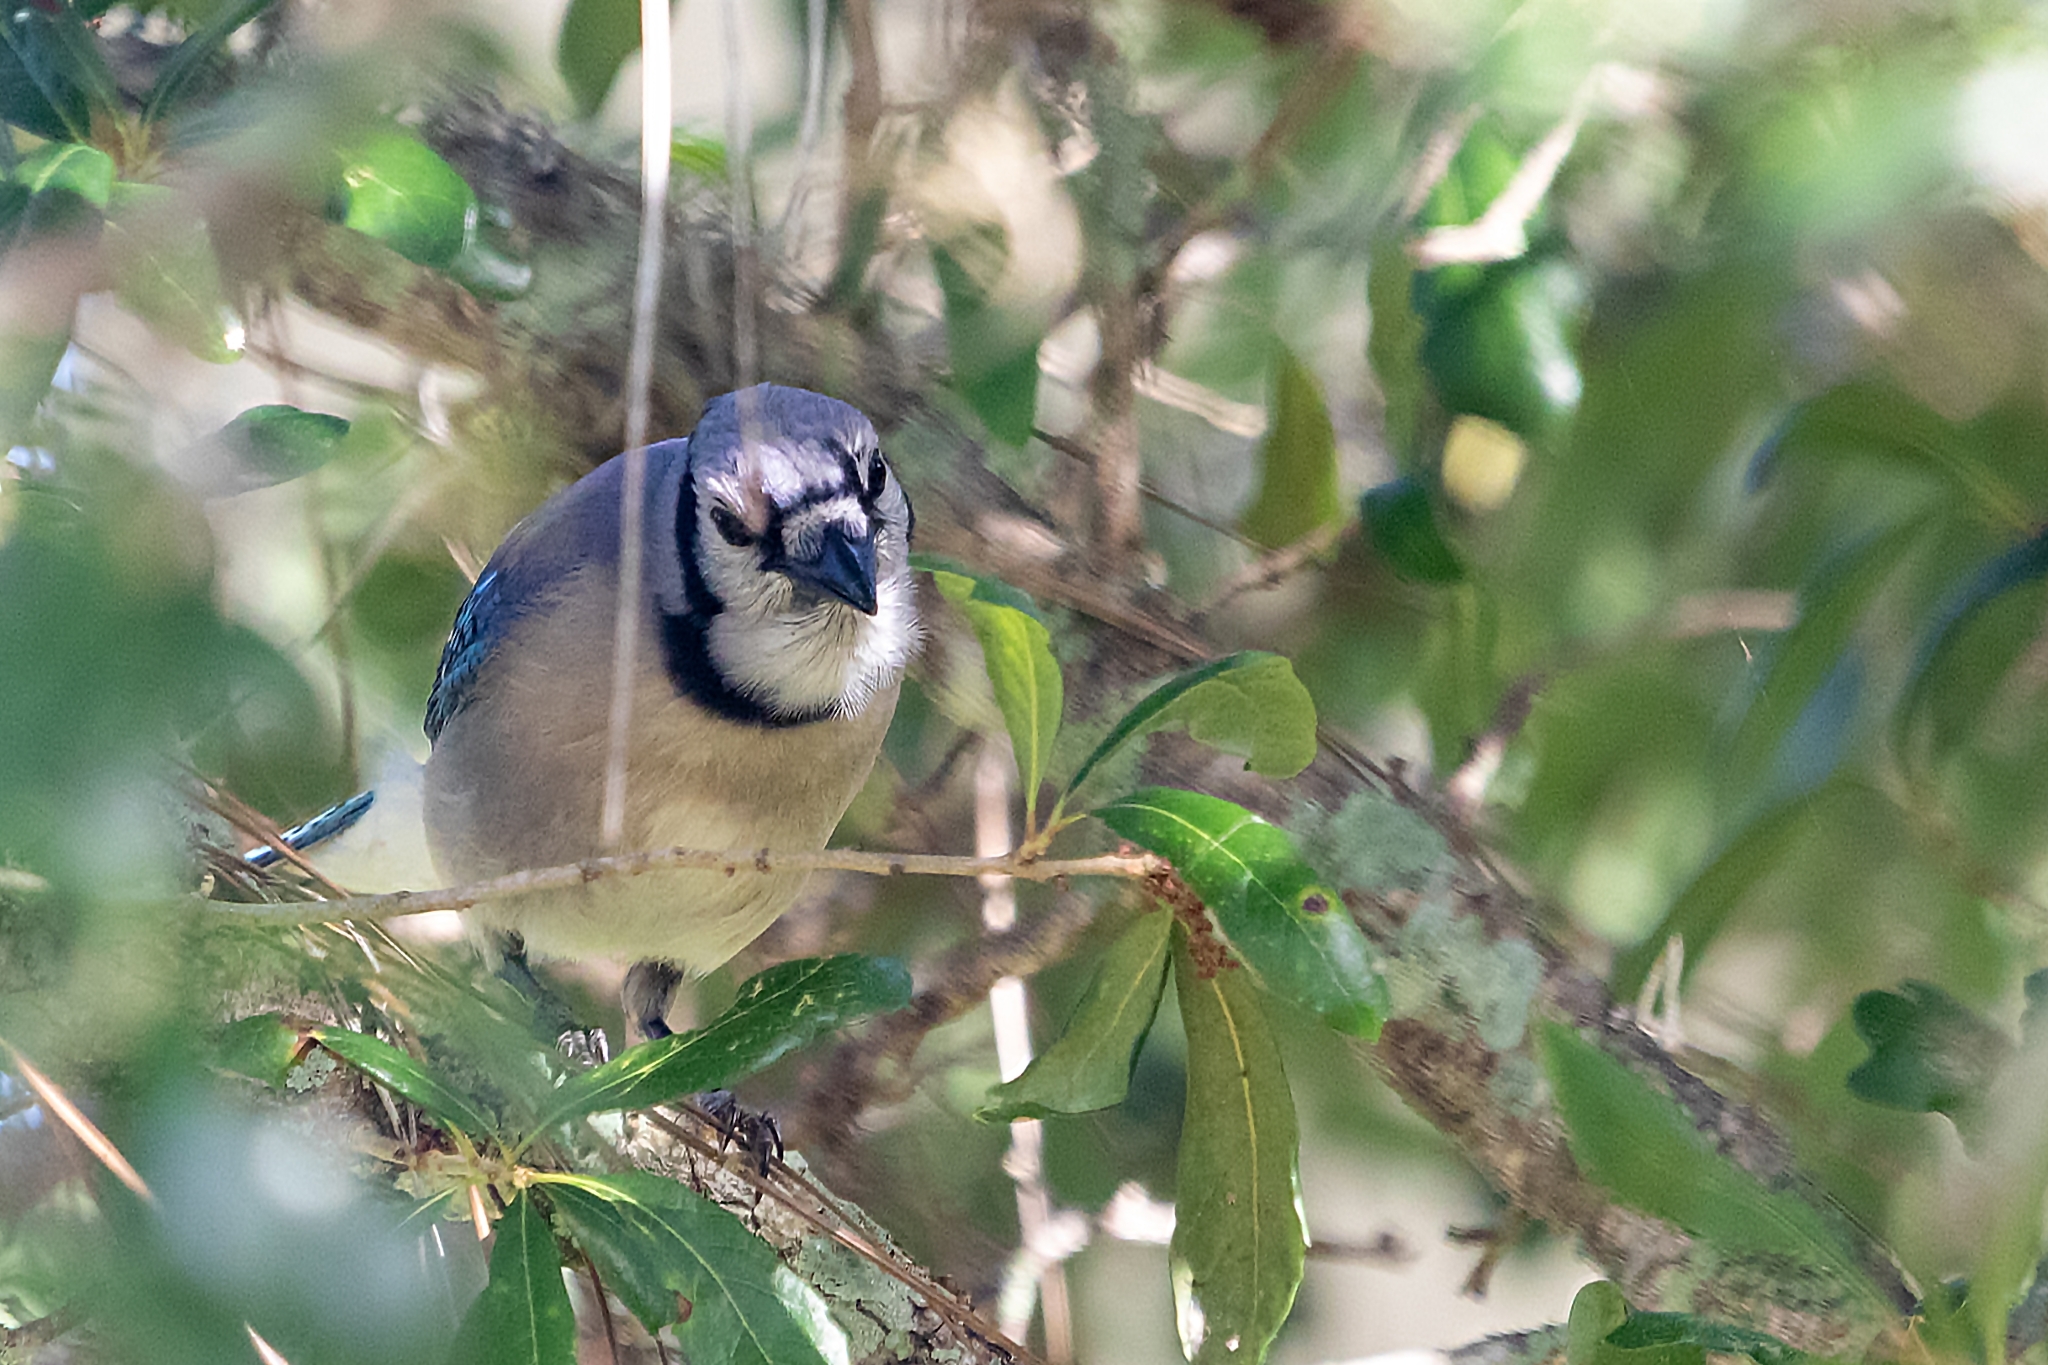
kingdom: Animalia
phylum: Chordata
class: Aves
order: Passeriformes
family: Corvidae
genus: Cyanocitta
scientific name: Cyanocitta cristata
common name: Blue jay
